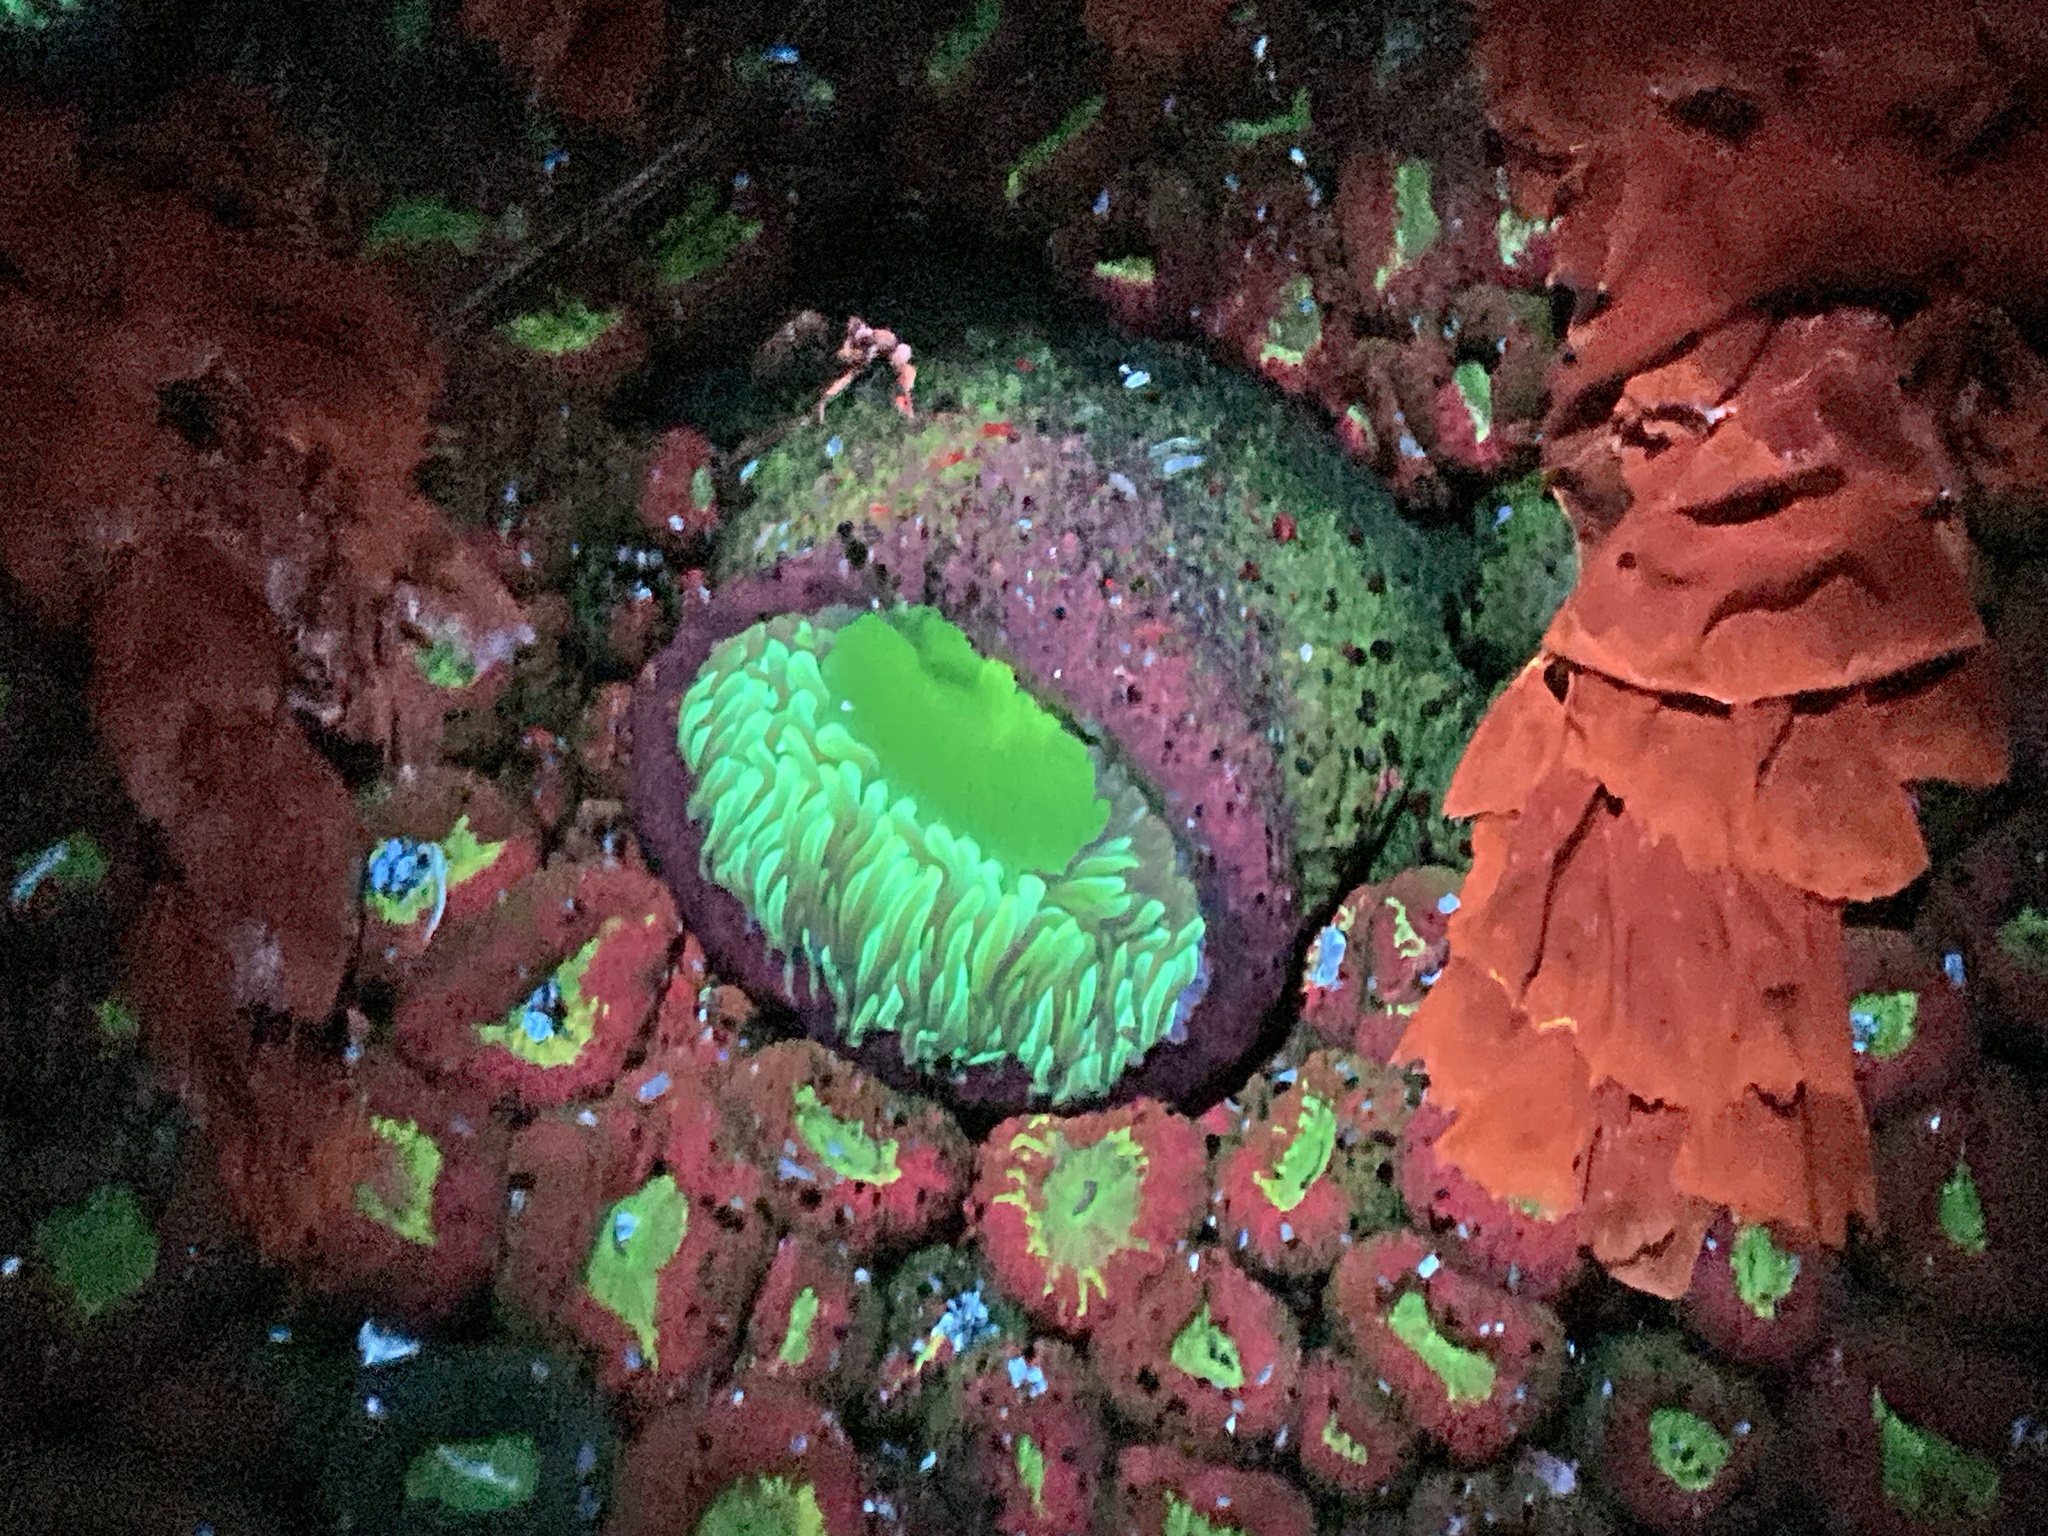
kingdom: Animalia
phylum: Cnidaria
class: Anthozoa
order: Actiniaria
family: Actiniidae
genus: Anthopleura
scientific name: Anthopleura xanthogrammica
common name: Giant green anemone
